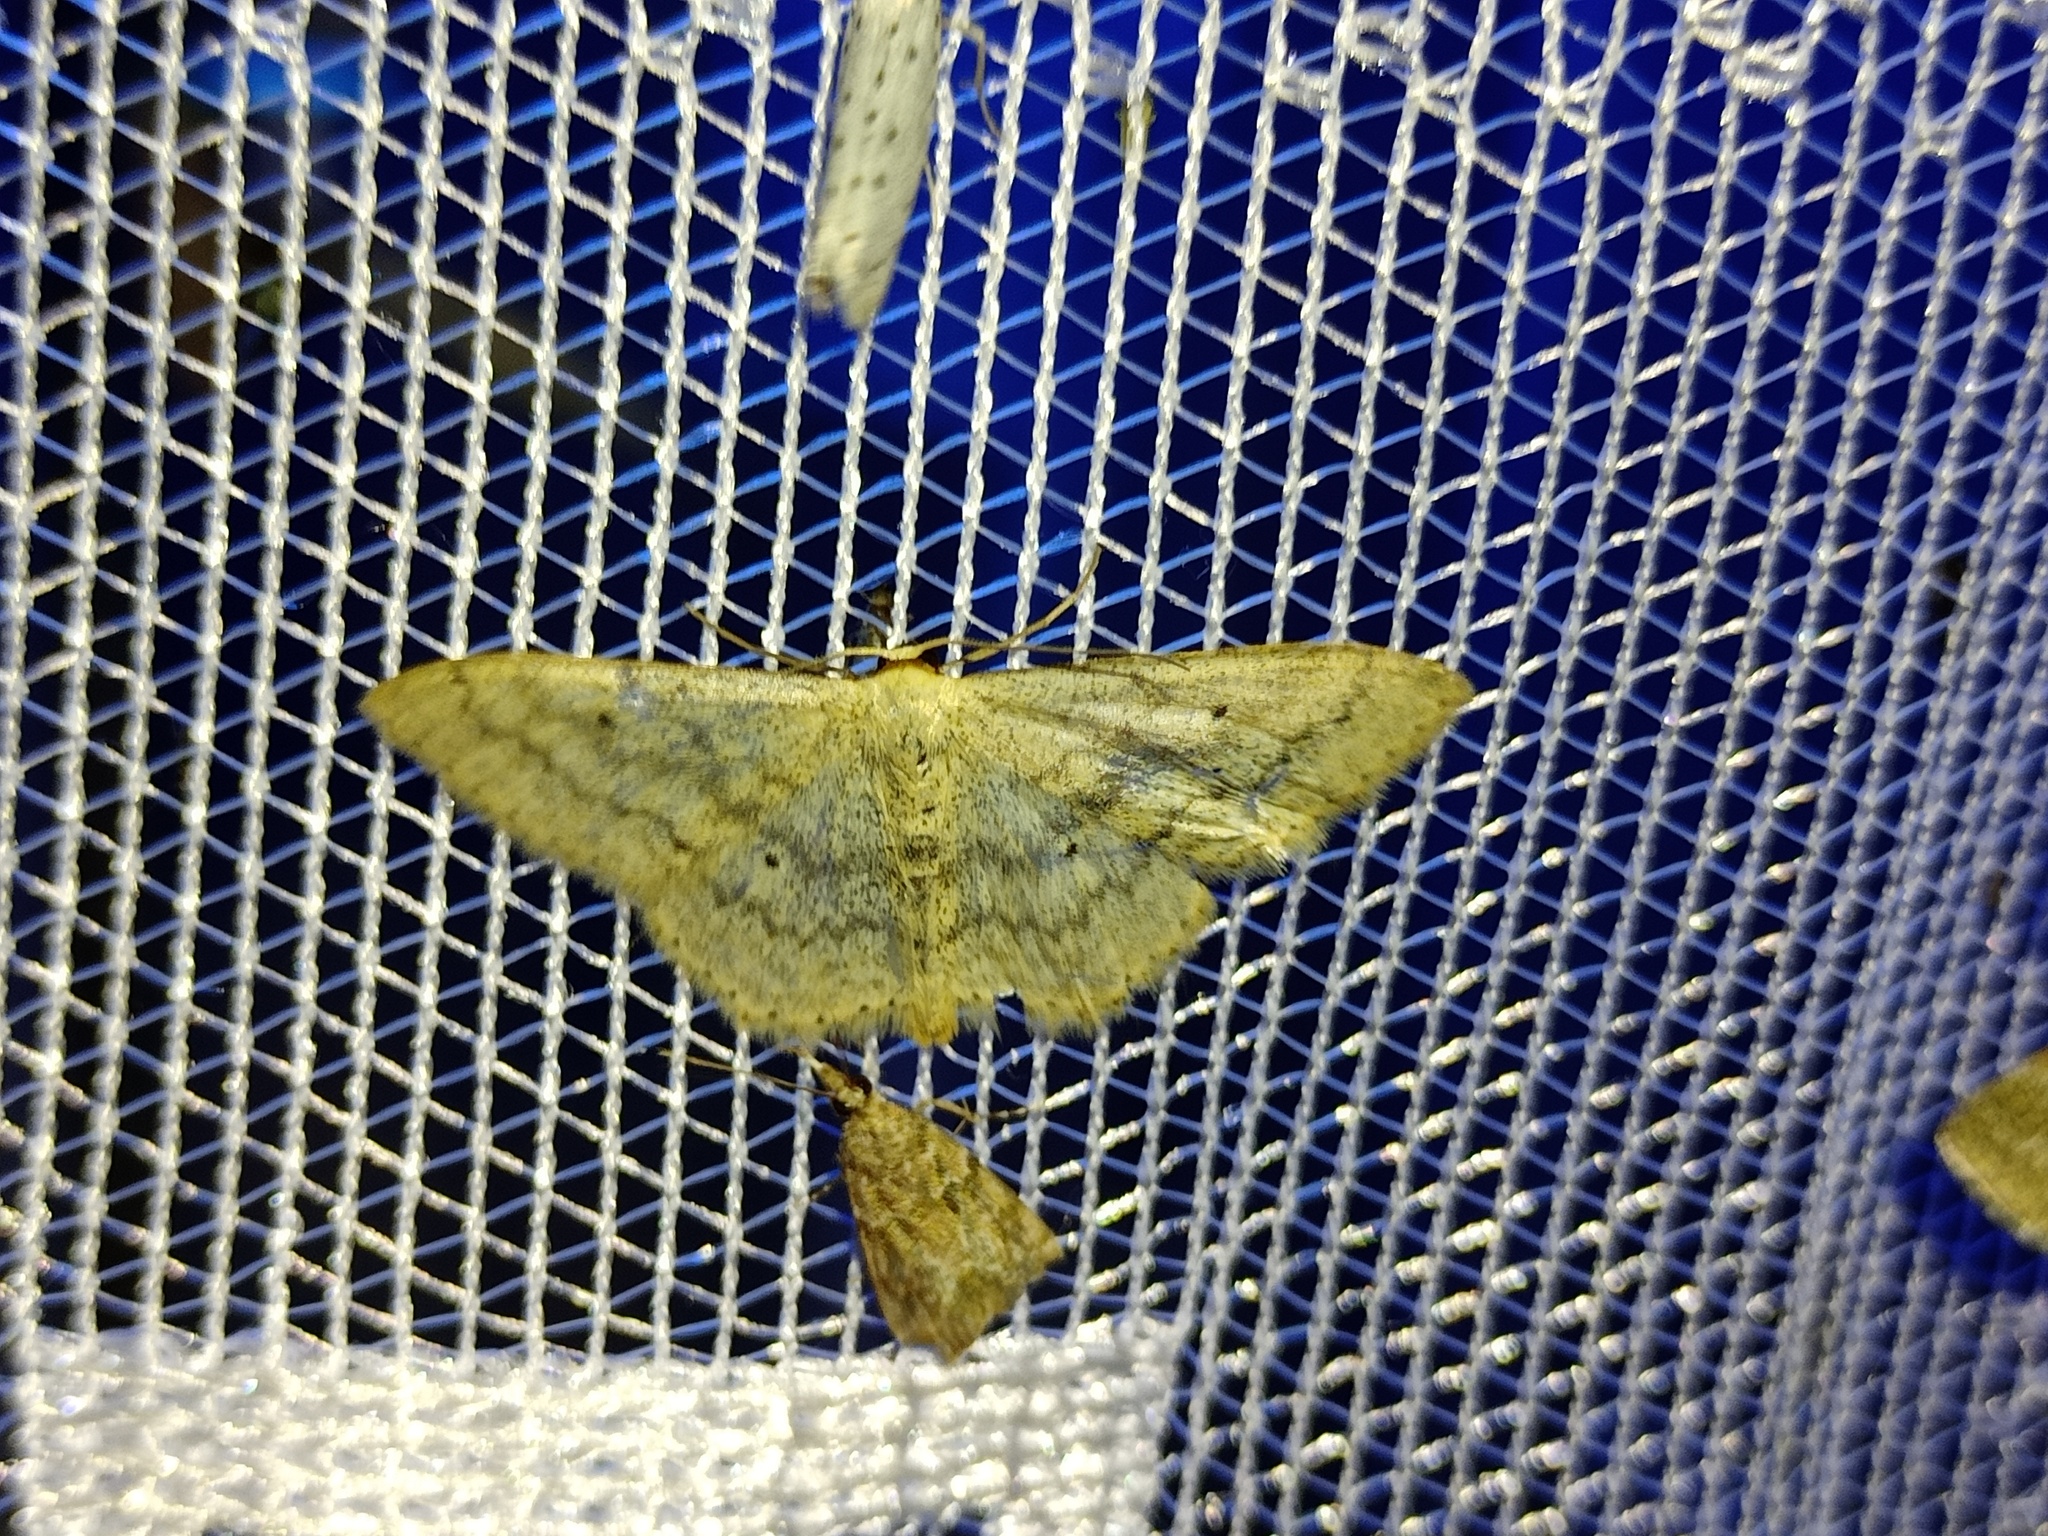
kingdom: Animalia
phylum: Arthropoda
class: Insecta
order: Lepidoptera
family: Geometridae
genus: Scopula
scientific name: Scopula incanata
